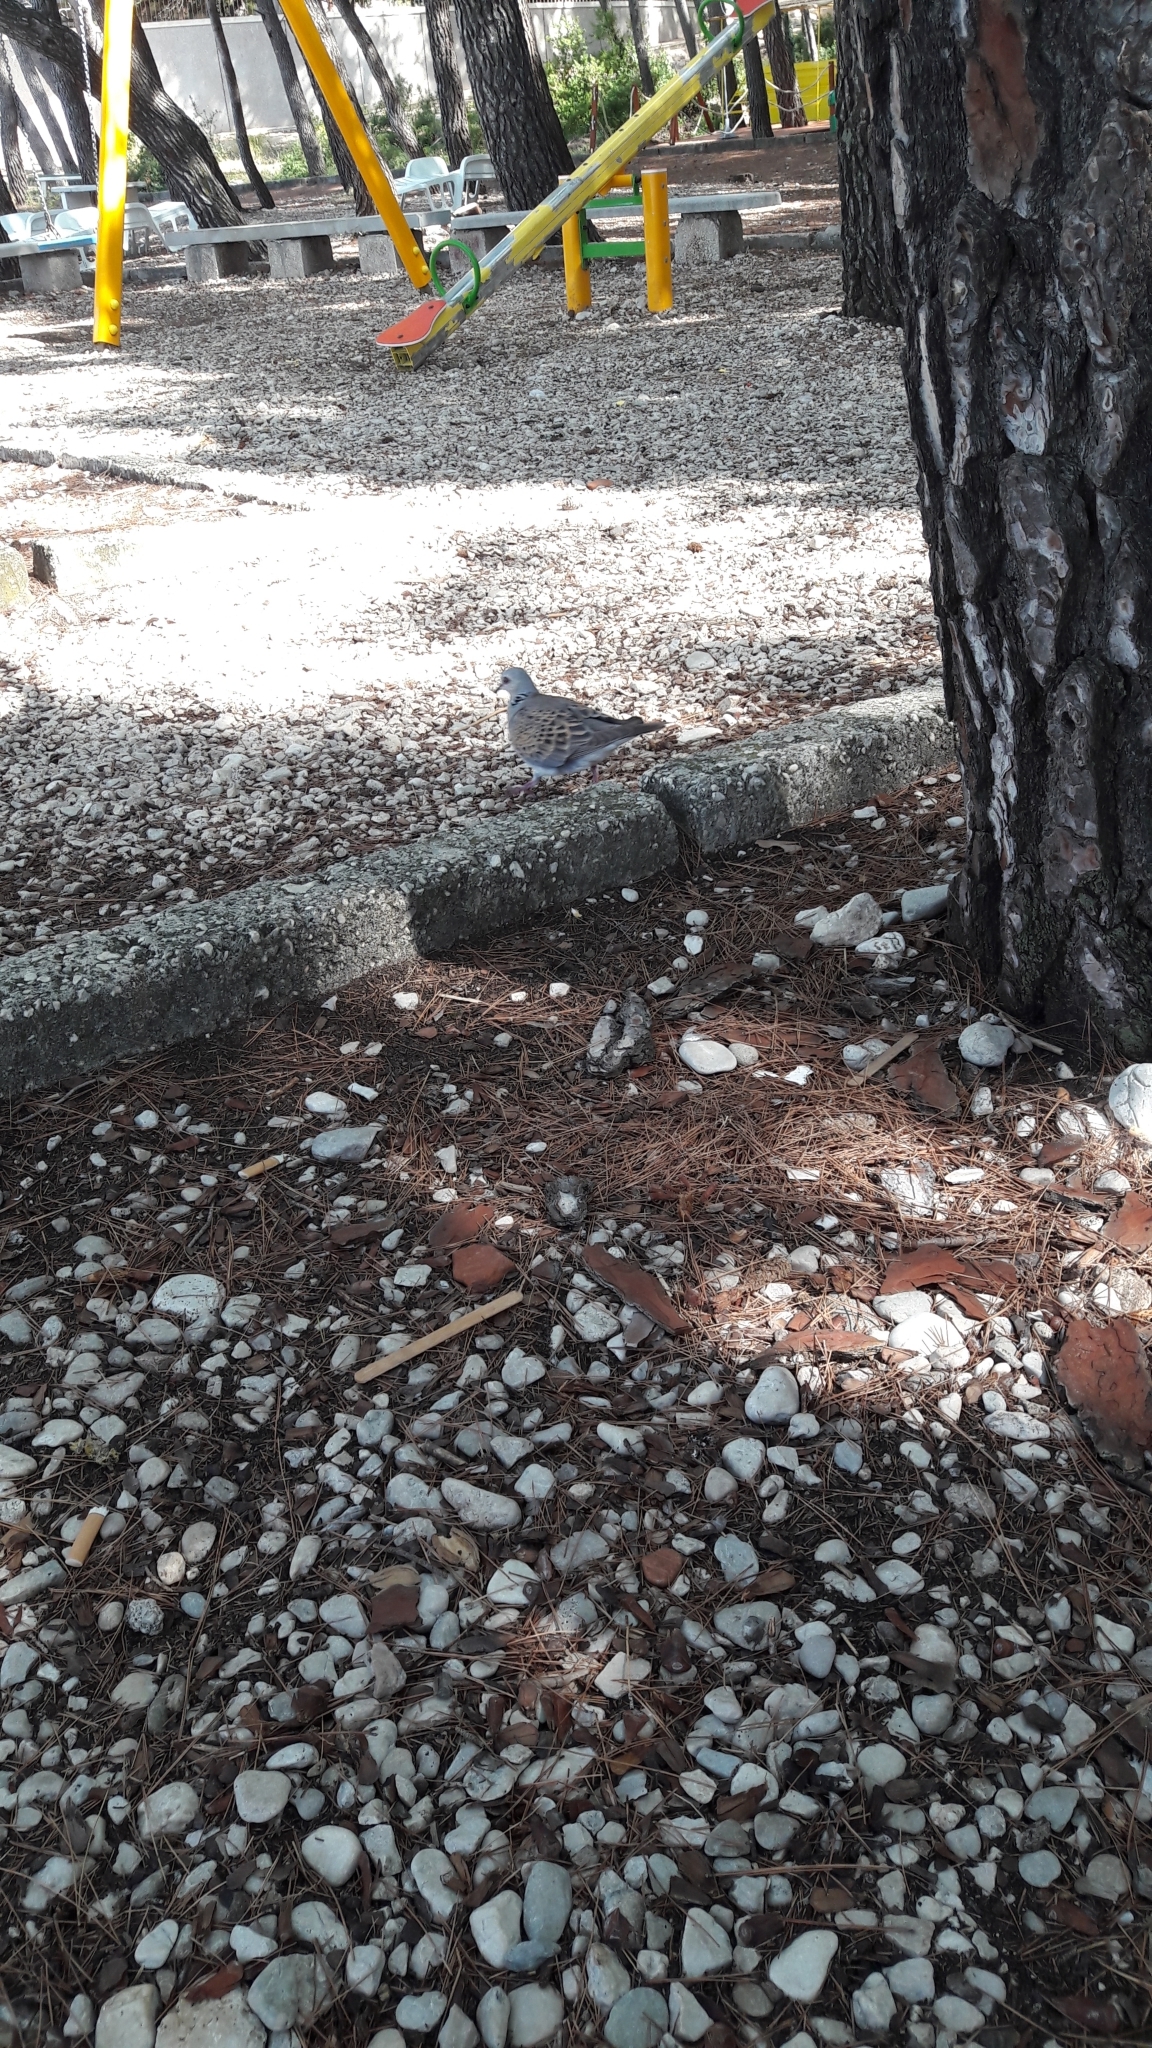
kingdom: Animalia
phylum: Chordata
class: Aves
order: Columbiformes
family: Columbidae
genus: Streptopelia
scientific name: Streptopelia turtur
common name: European turtle dove
